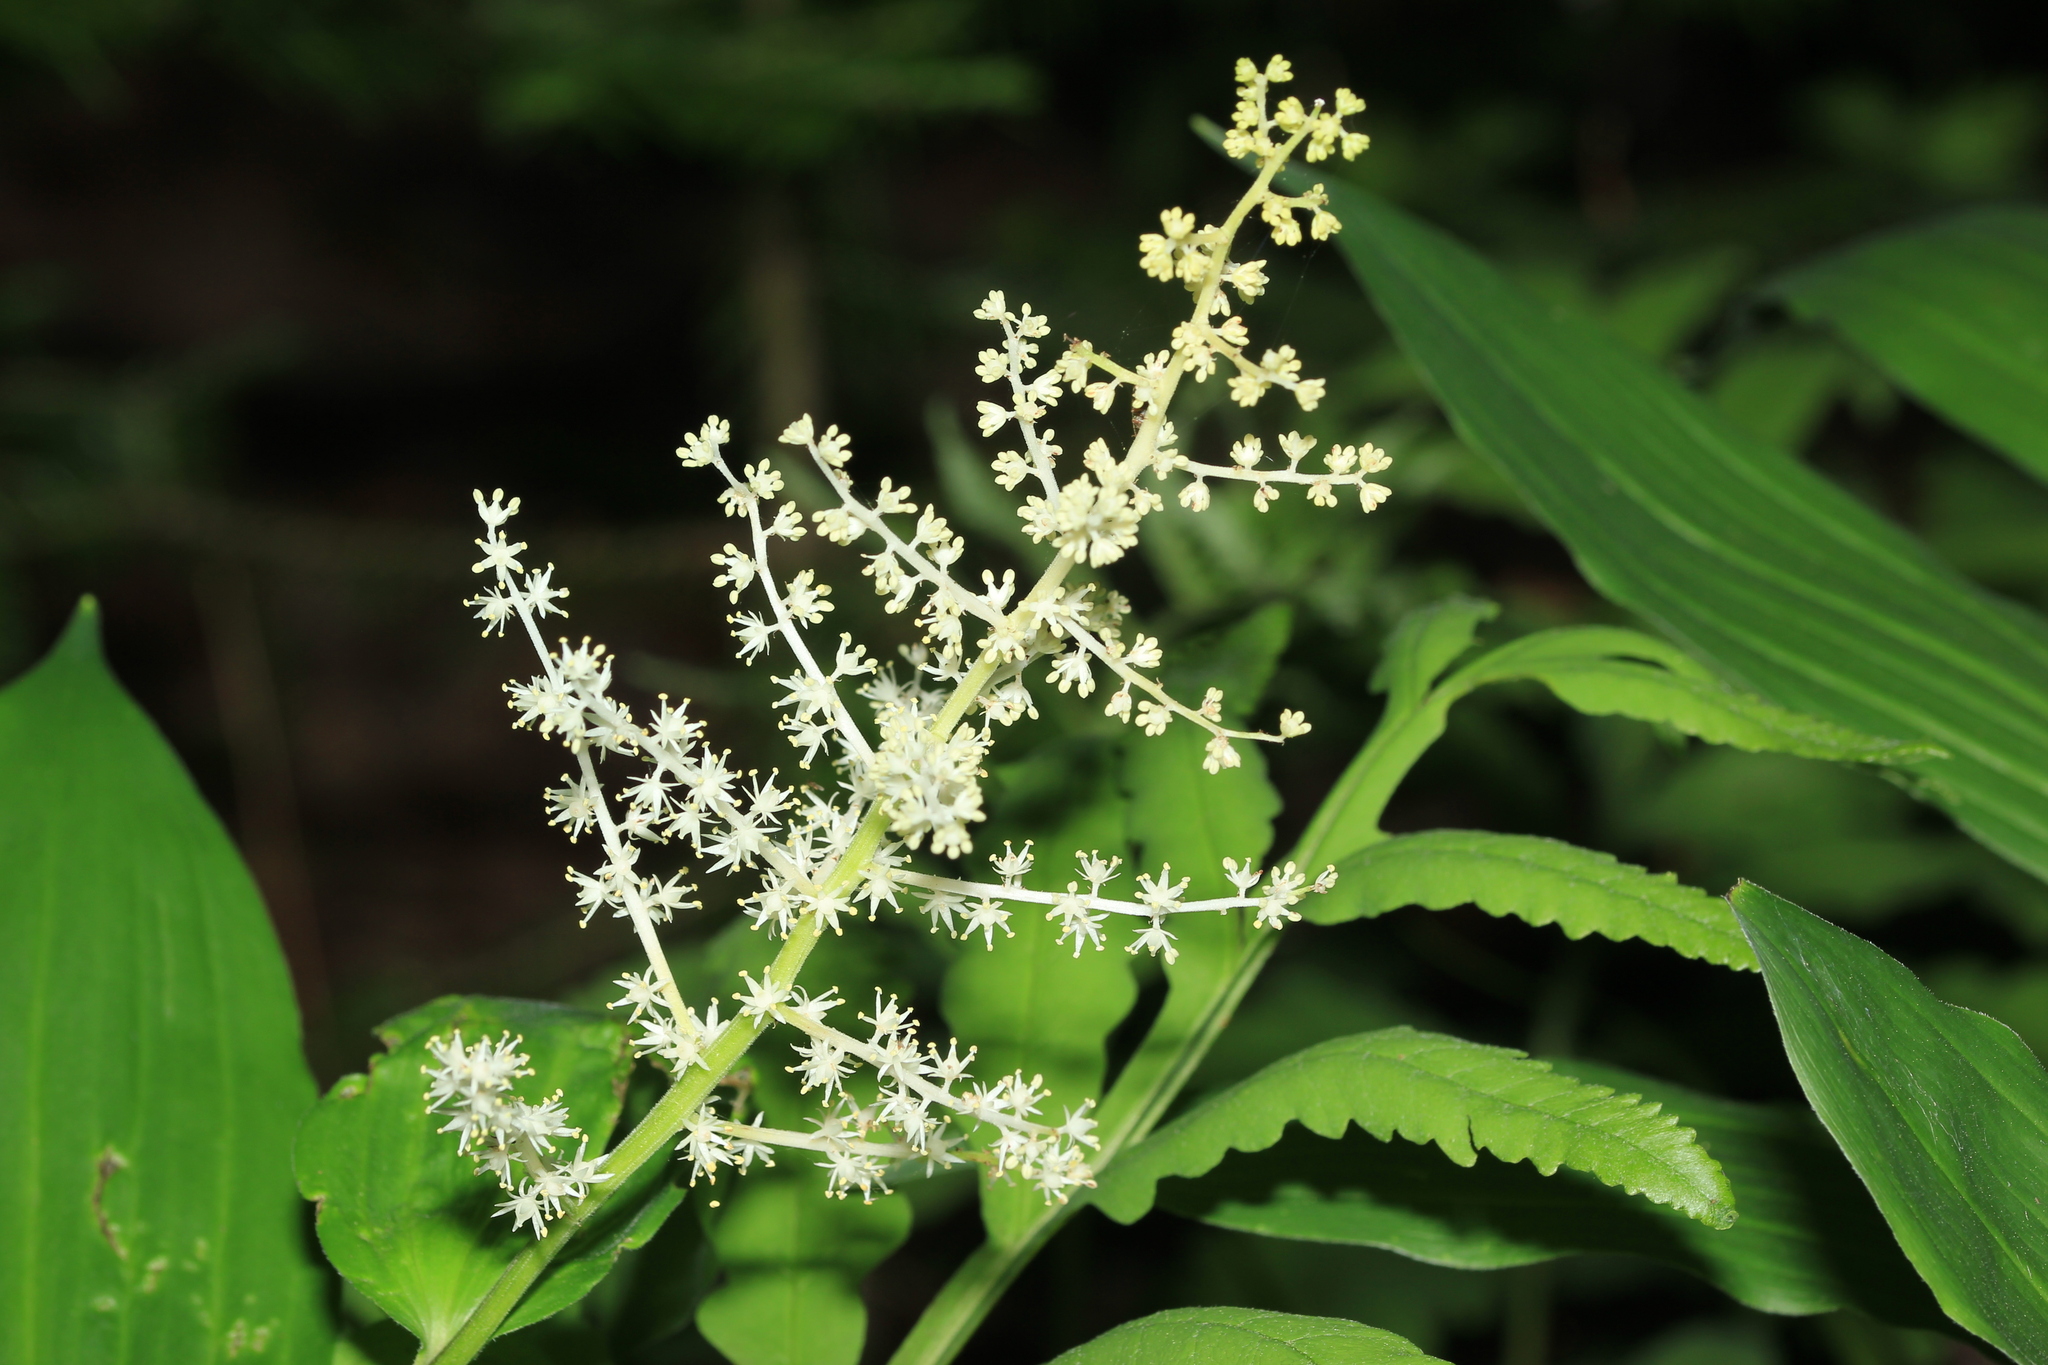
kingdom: Plantae
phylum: Tracheophyta
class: Liliopsida
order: Asparagales
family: Asparagaceae
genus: Maianthemum
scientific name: Maianthemum racemosum
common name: False spikenard
